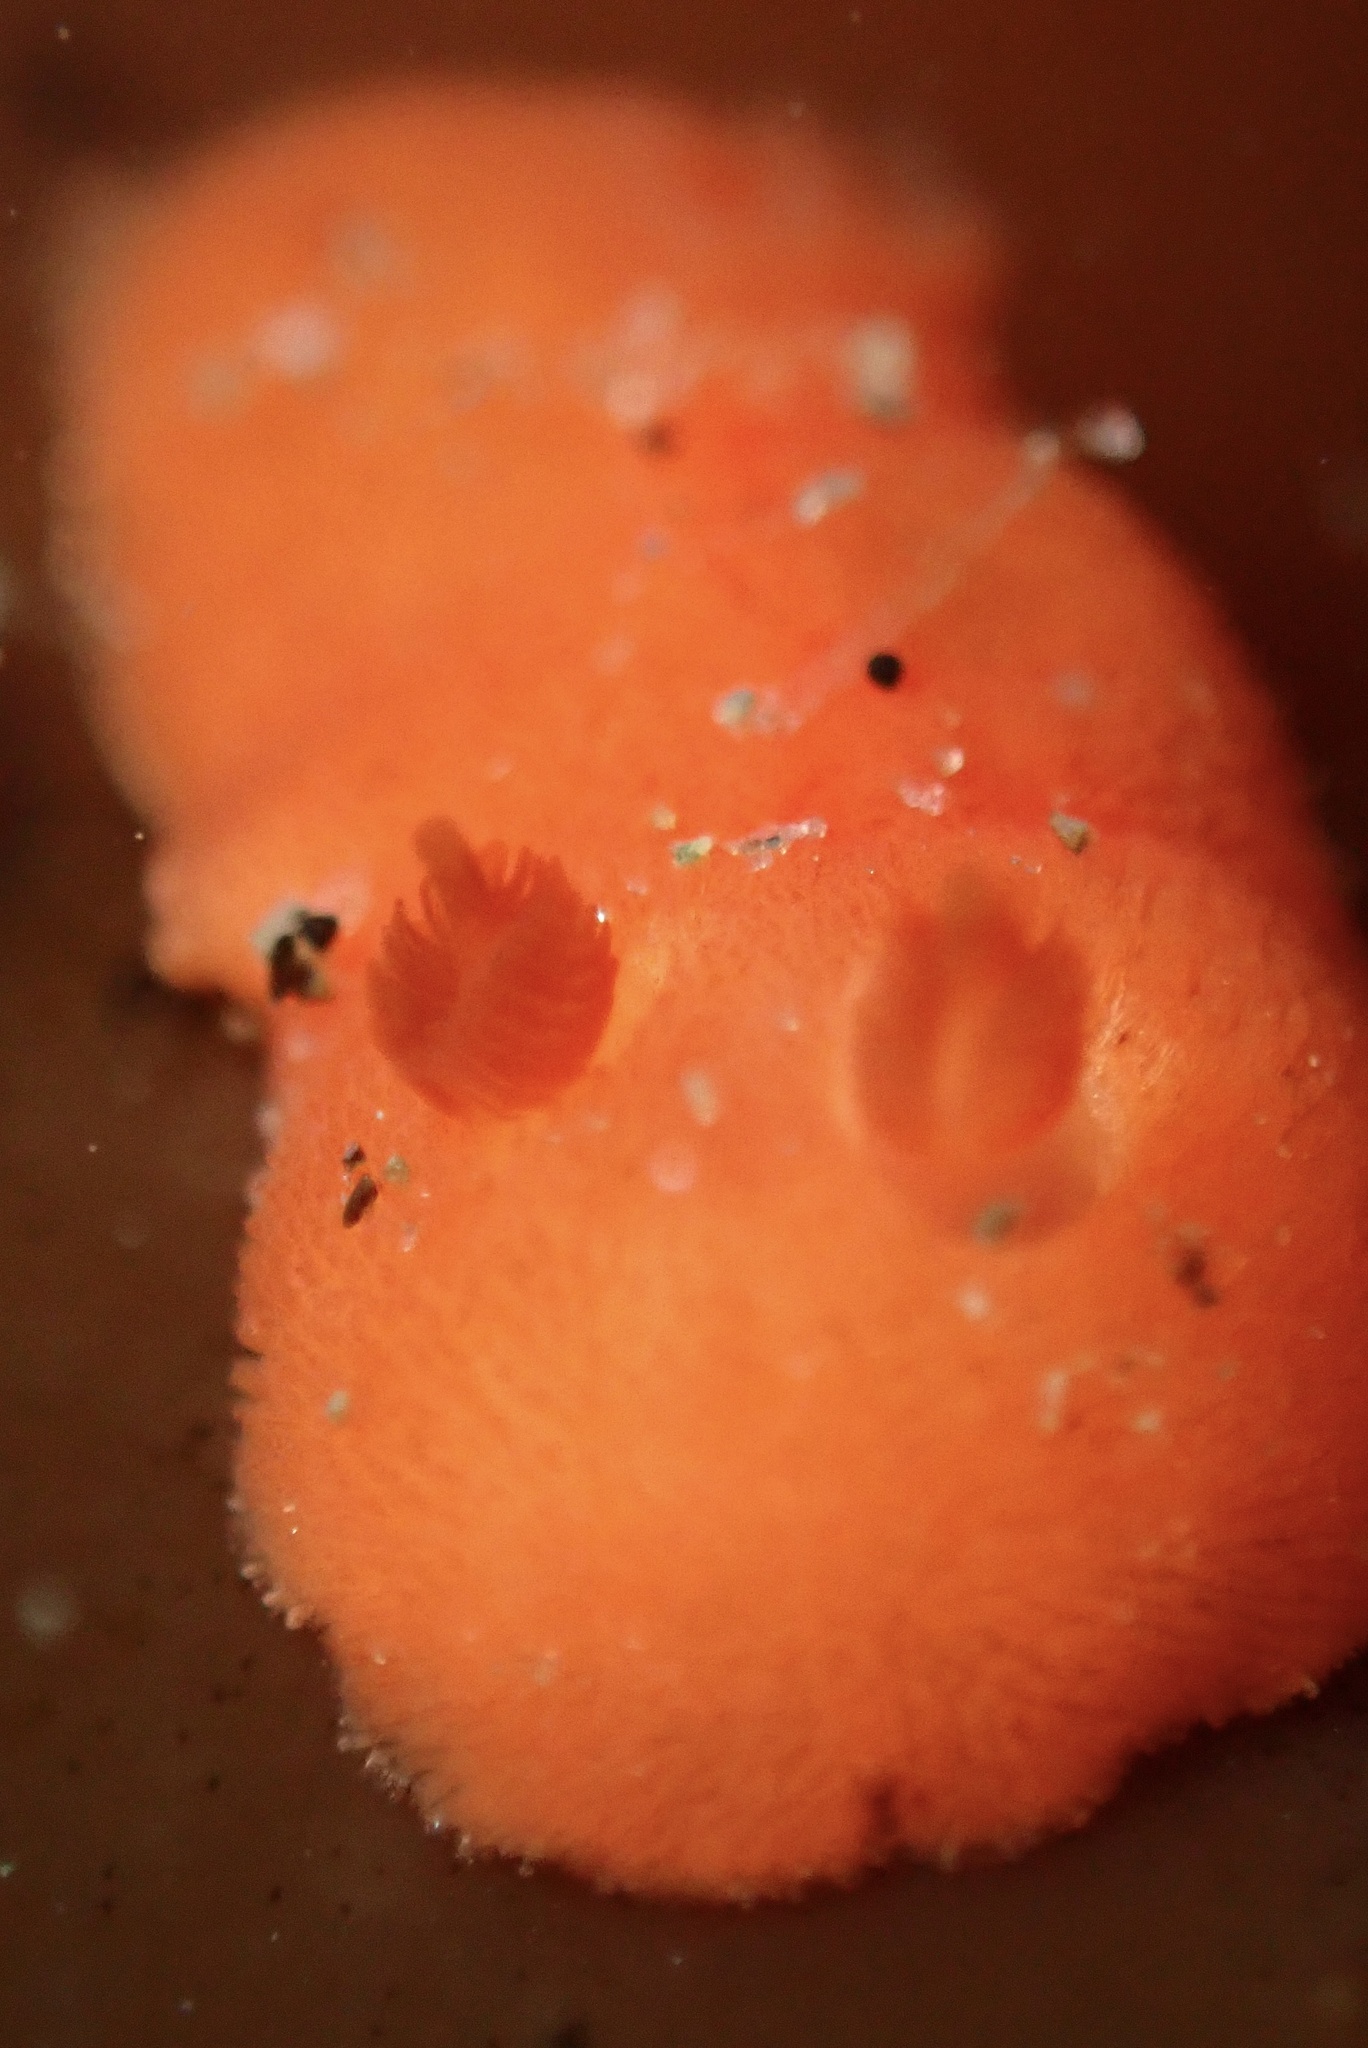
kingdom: Animalia
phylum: Mollusca
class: Gastropoda
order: Nudibranchia
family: Discodorididae
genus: Rostanga
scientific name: Rostanga pulchra
